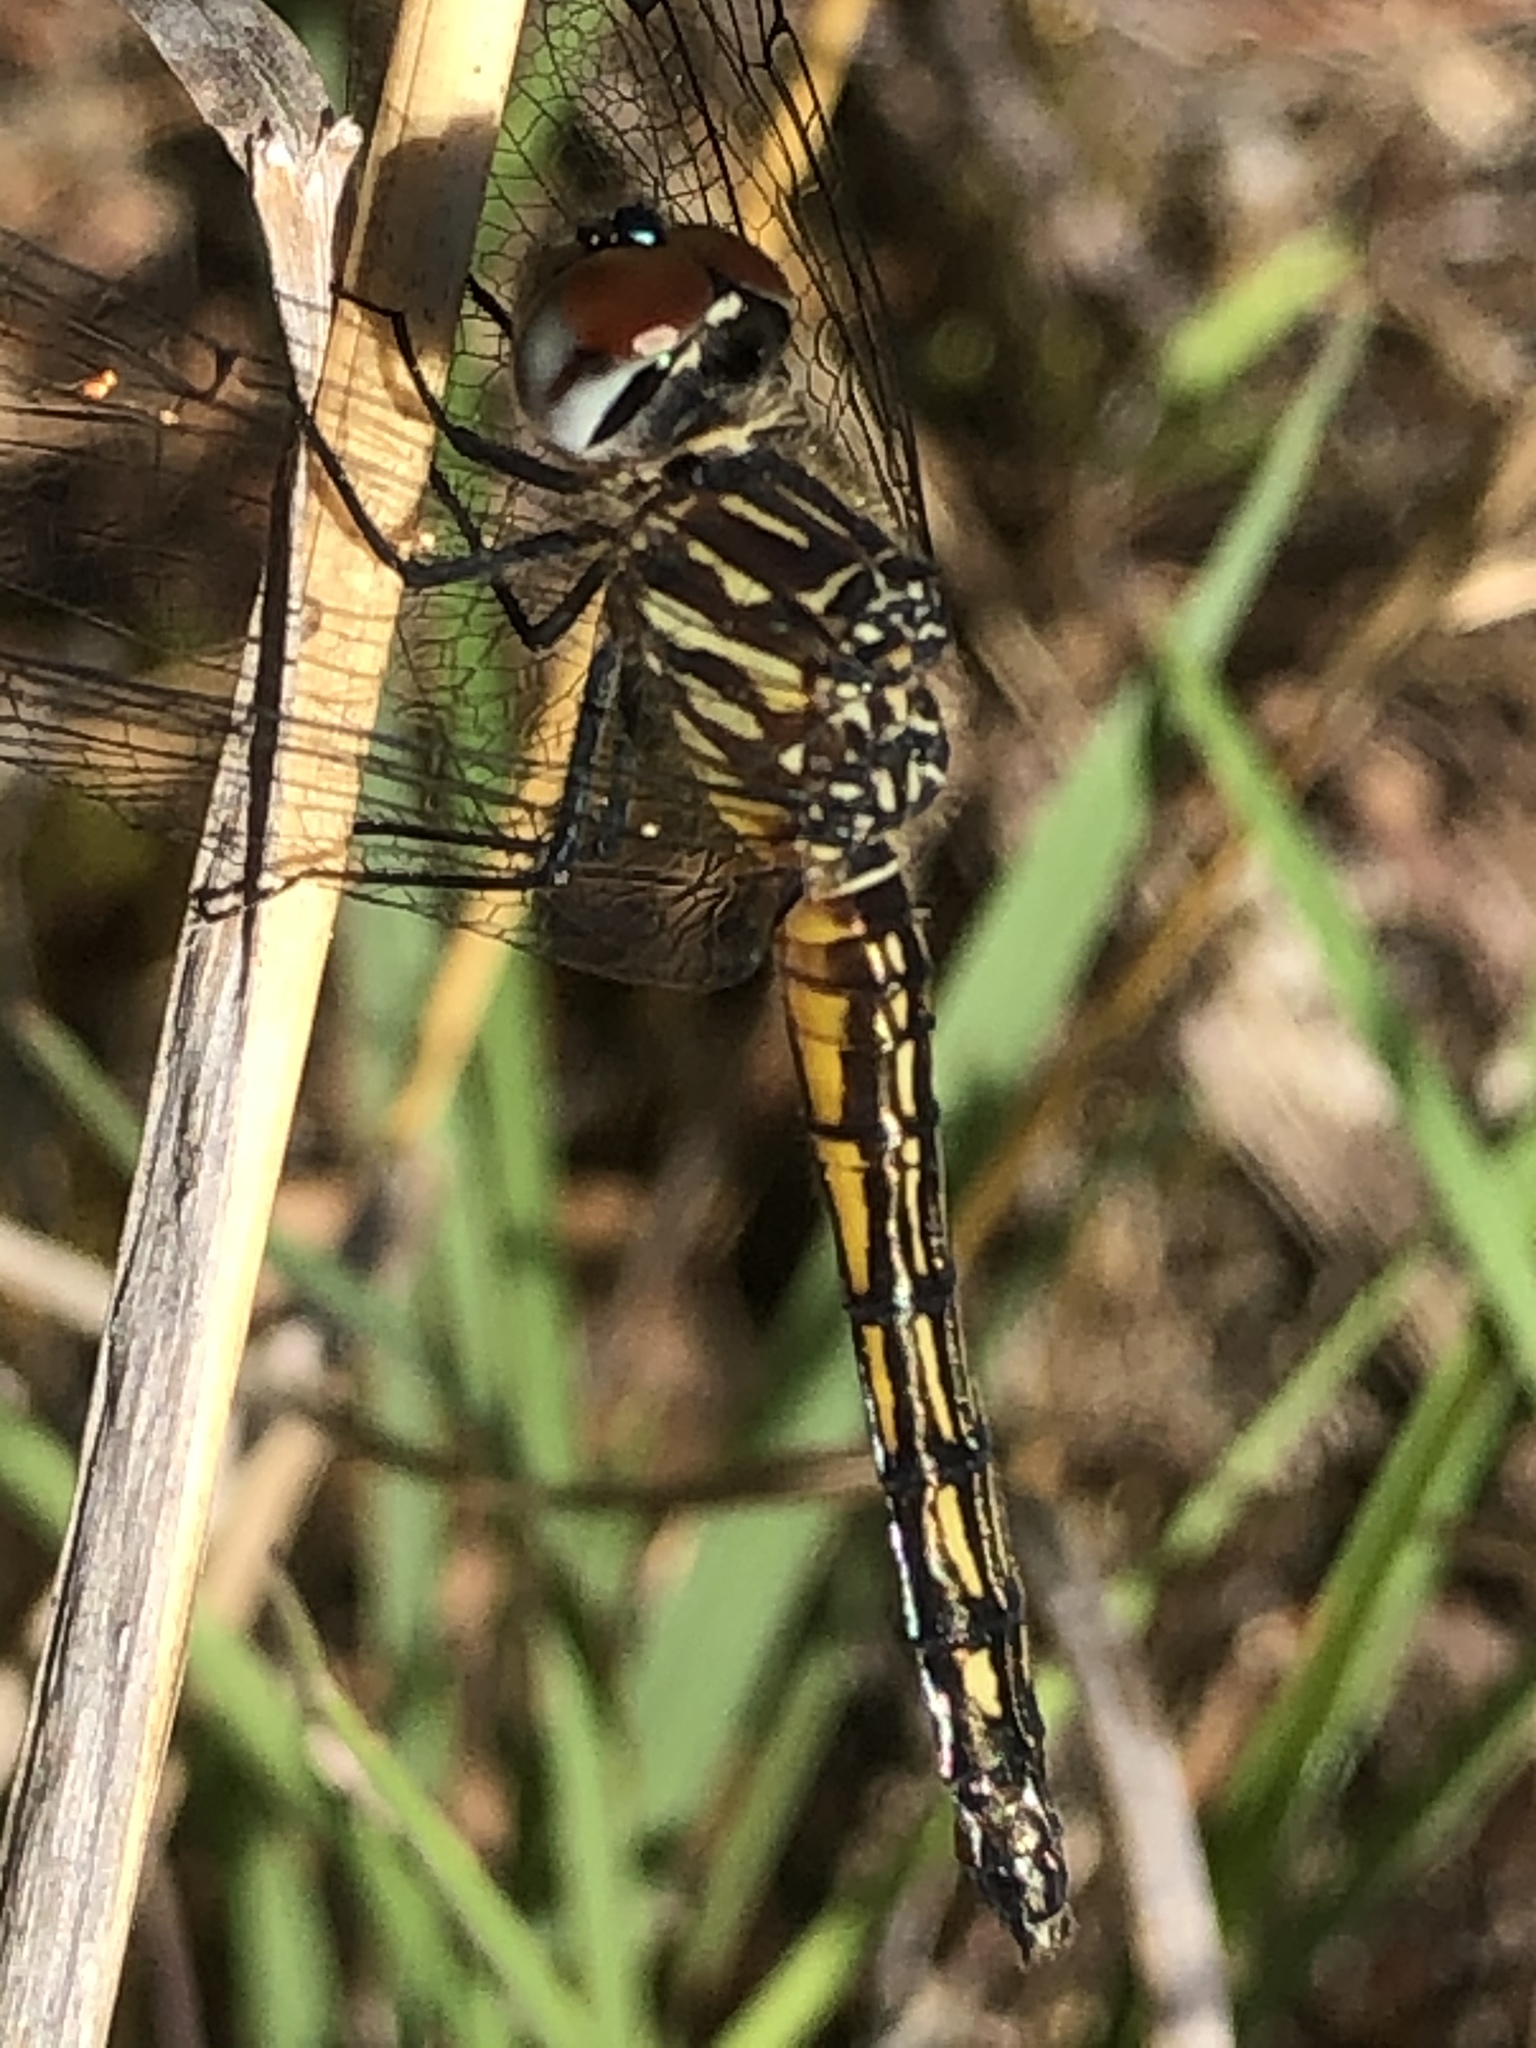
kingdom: Animalia
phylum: Arthropoda
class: Insecta
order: Odonata
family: Libellulidae
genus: Pachydiplax
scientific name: Pachydiplax longipennis
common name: Blue dasher
